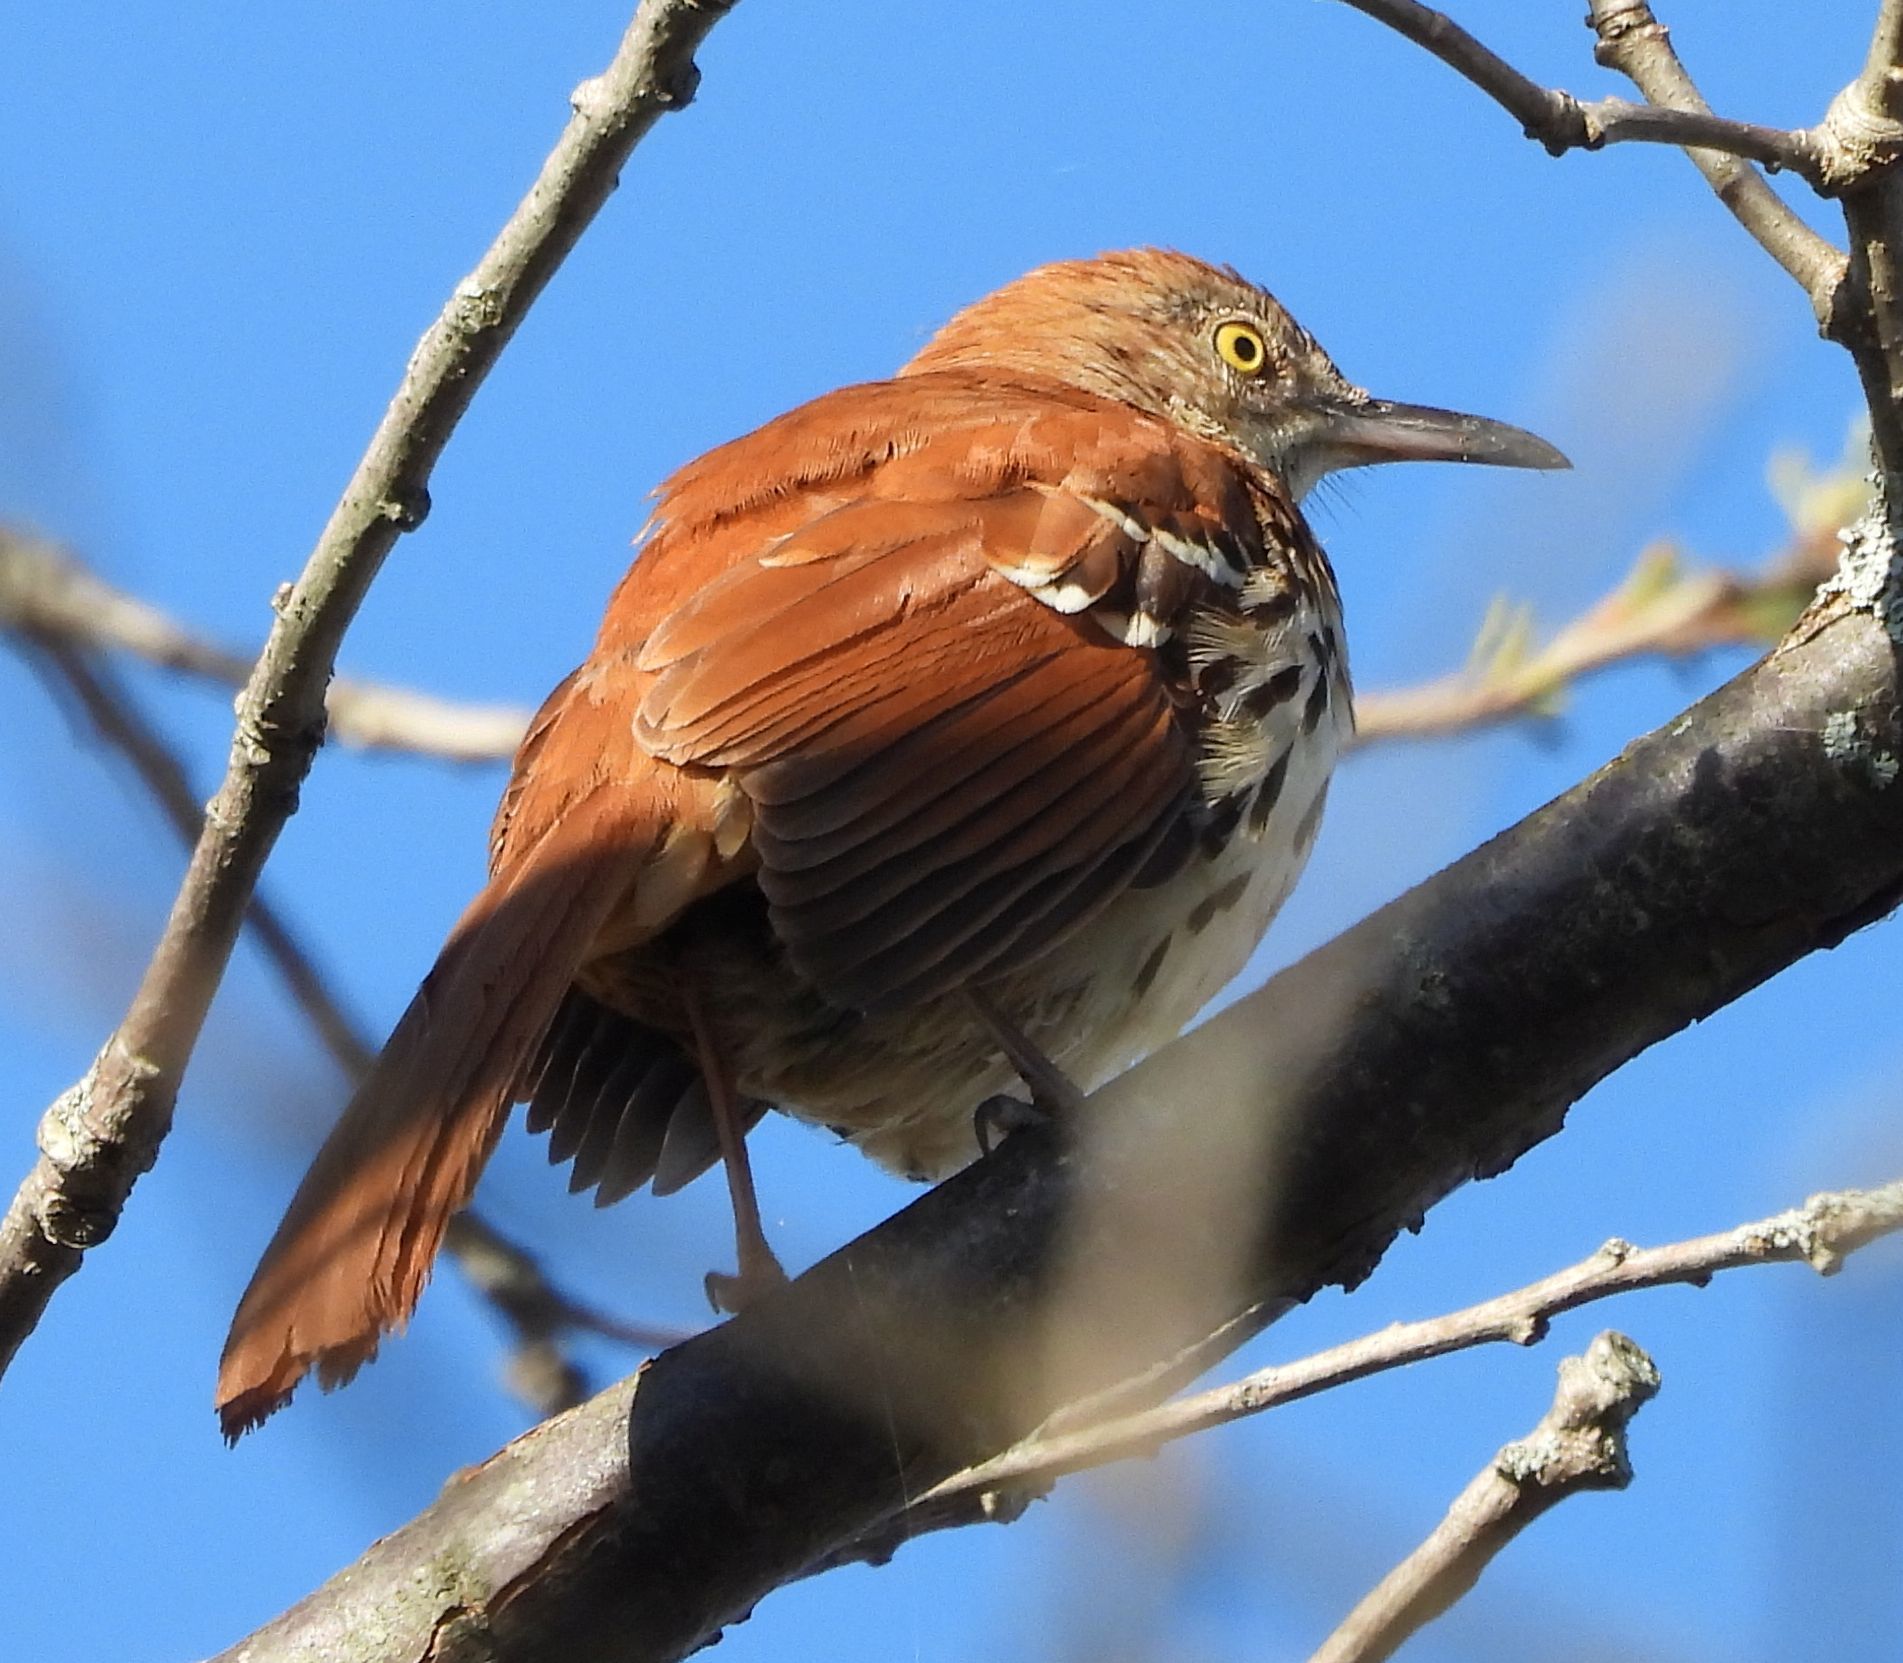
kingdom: Animalia
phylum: Chordata
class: Aves
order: Passeriformes
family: Mimidae
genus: Toxostoma
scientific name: Toxostoma rufum
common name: Brown thrasher
